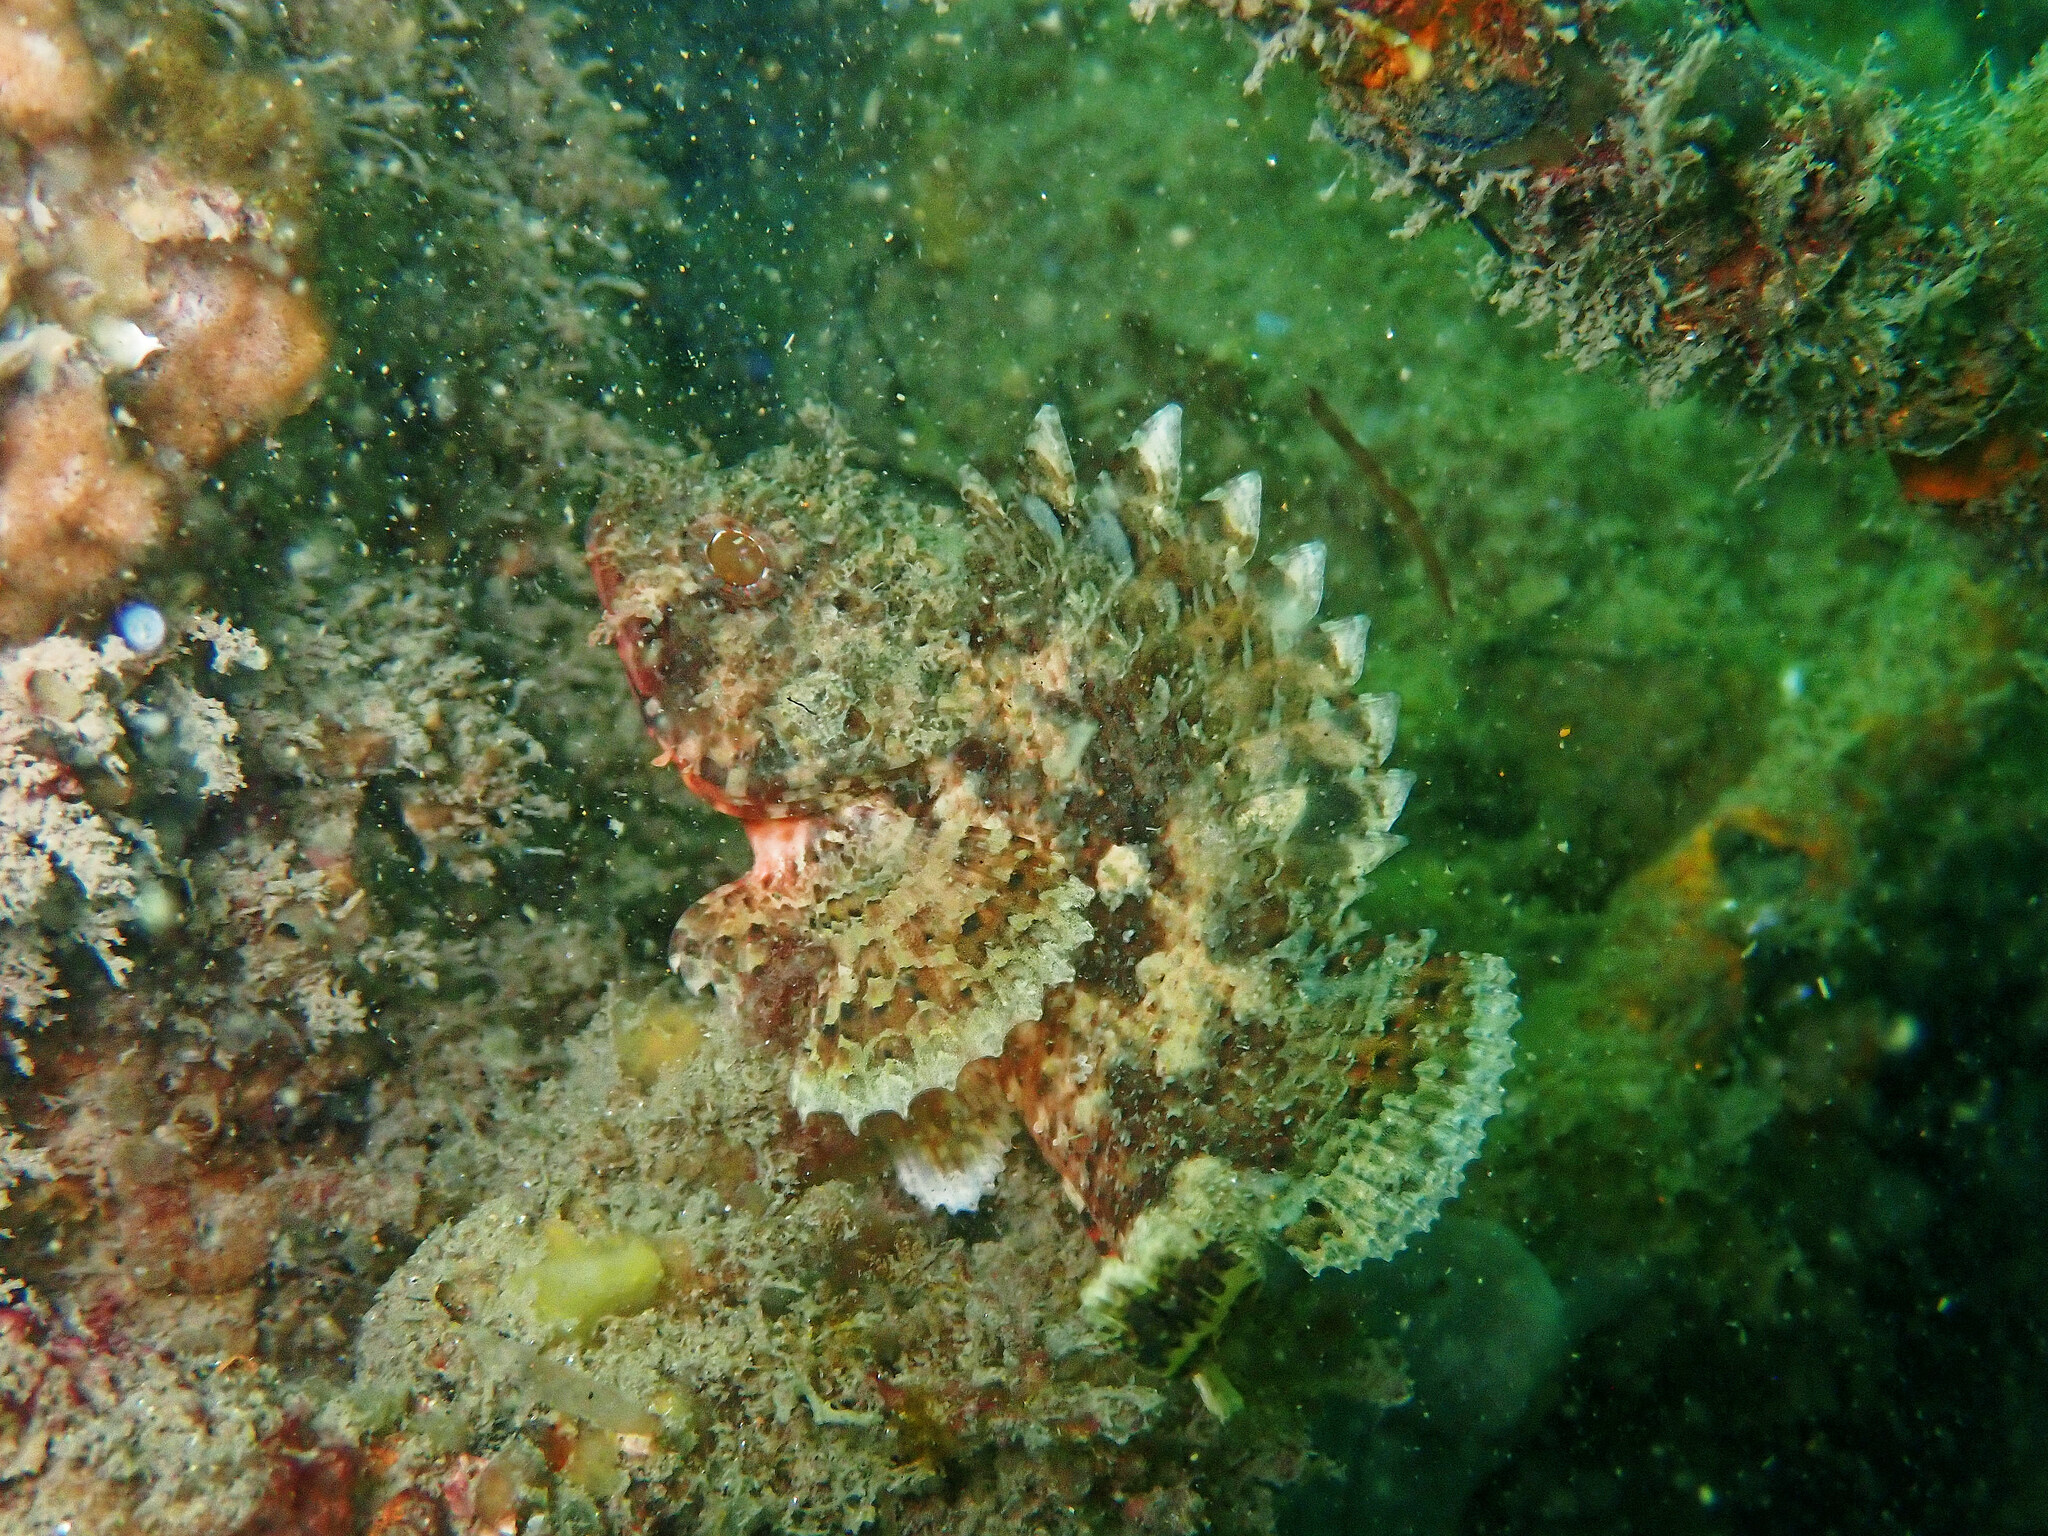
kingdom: Animalia
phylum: Chordata
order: Scorpaeniformes
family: Scorpaenidae
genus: Scorpaena
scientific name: Scorpaena notata
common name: Small red scorpionfish
